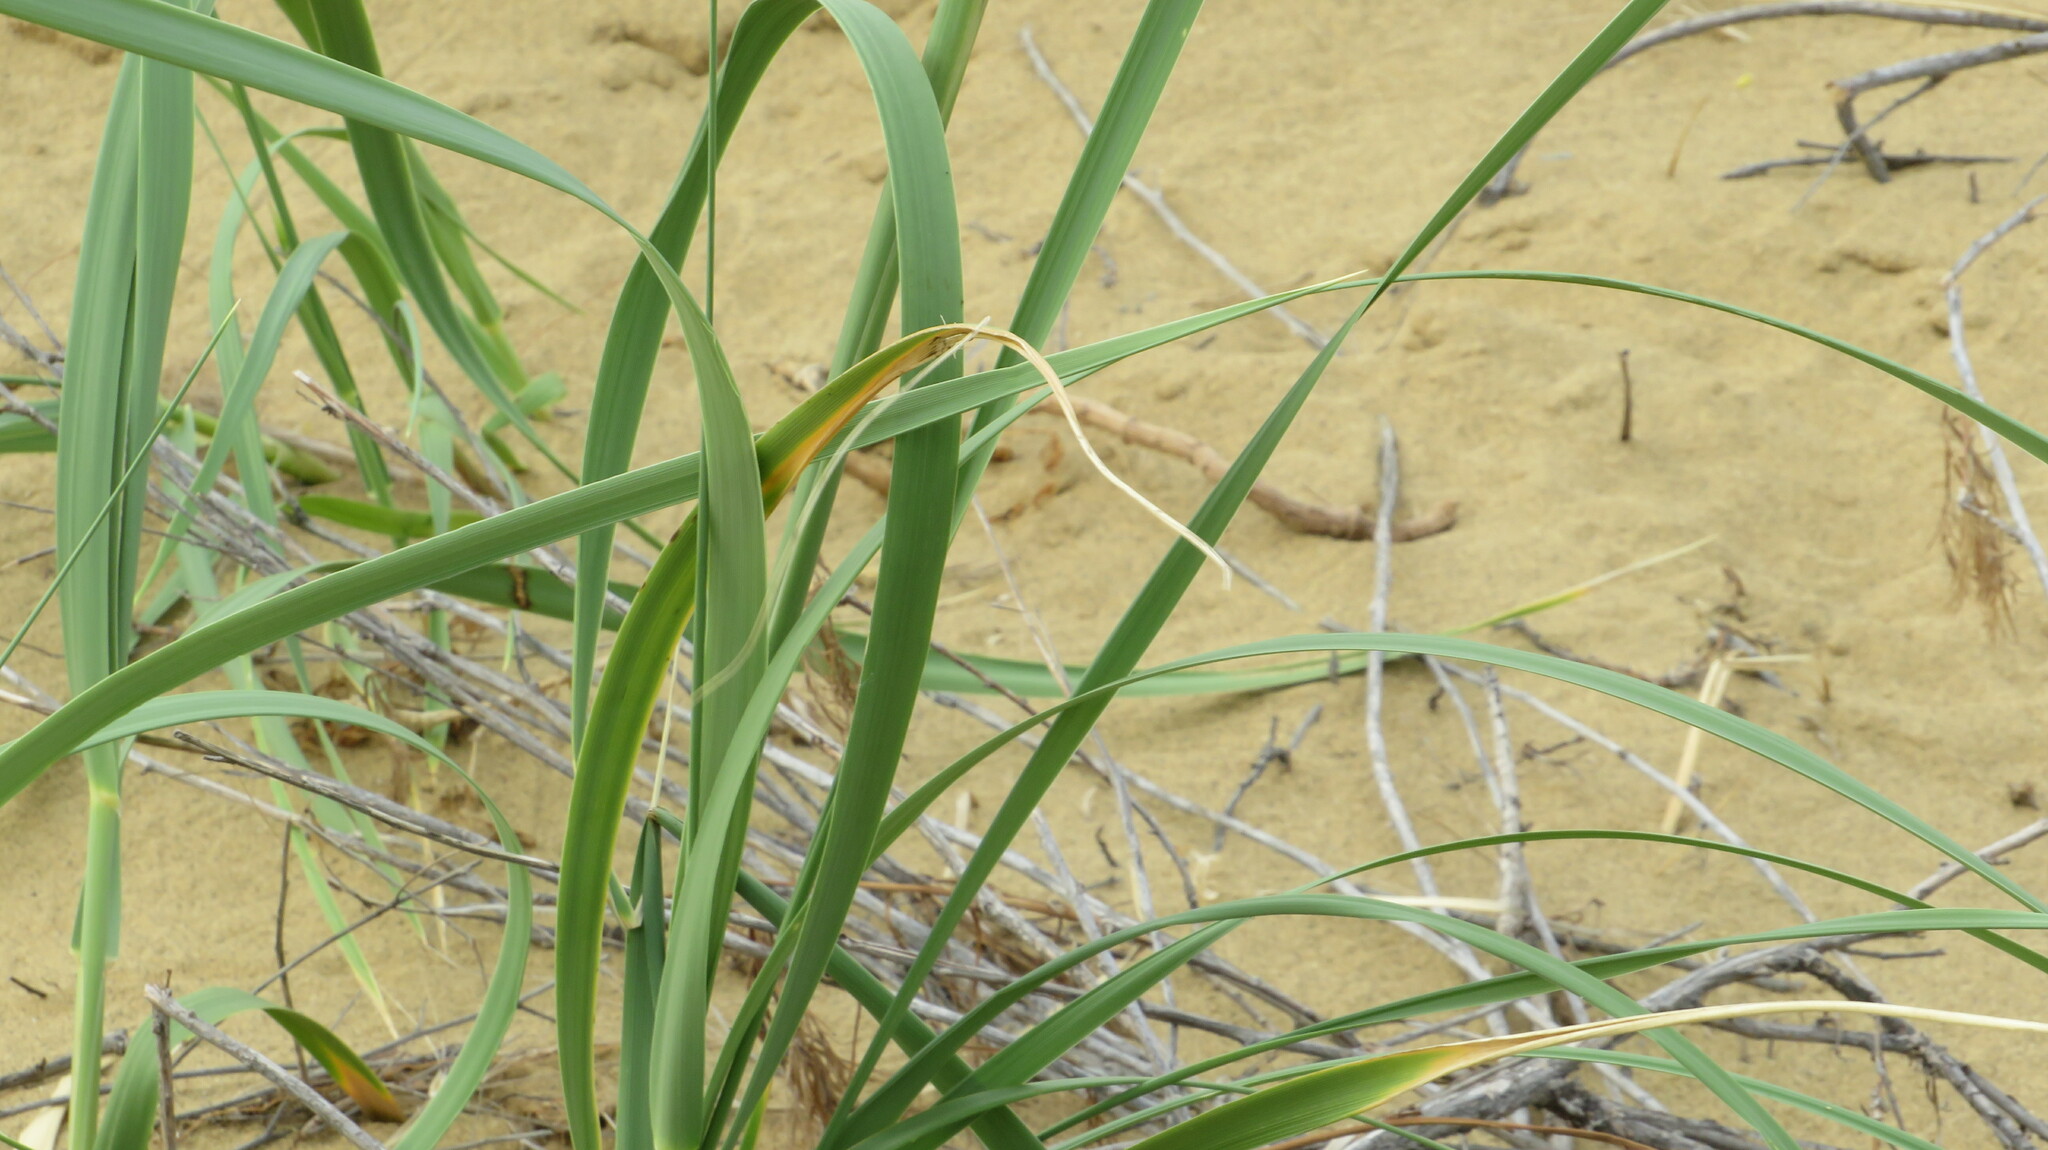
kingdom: Plantae
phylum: Tracheophyta
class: Liliopsida
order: Poales
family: Poaceae
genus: Leymus
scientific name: Leymus racemosus
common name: Mammoth wildrye
